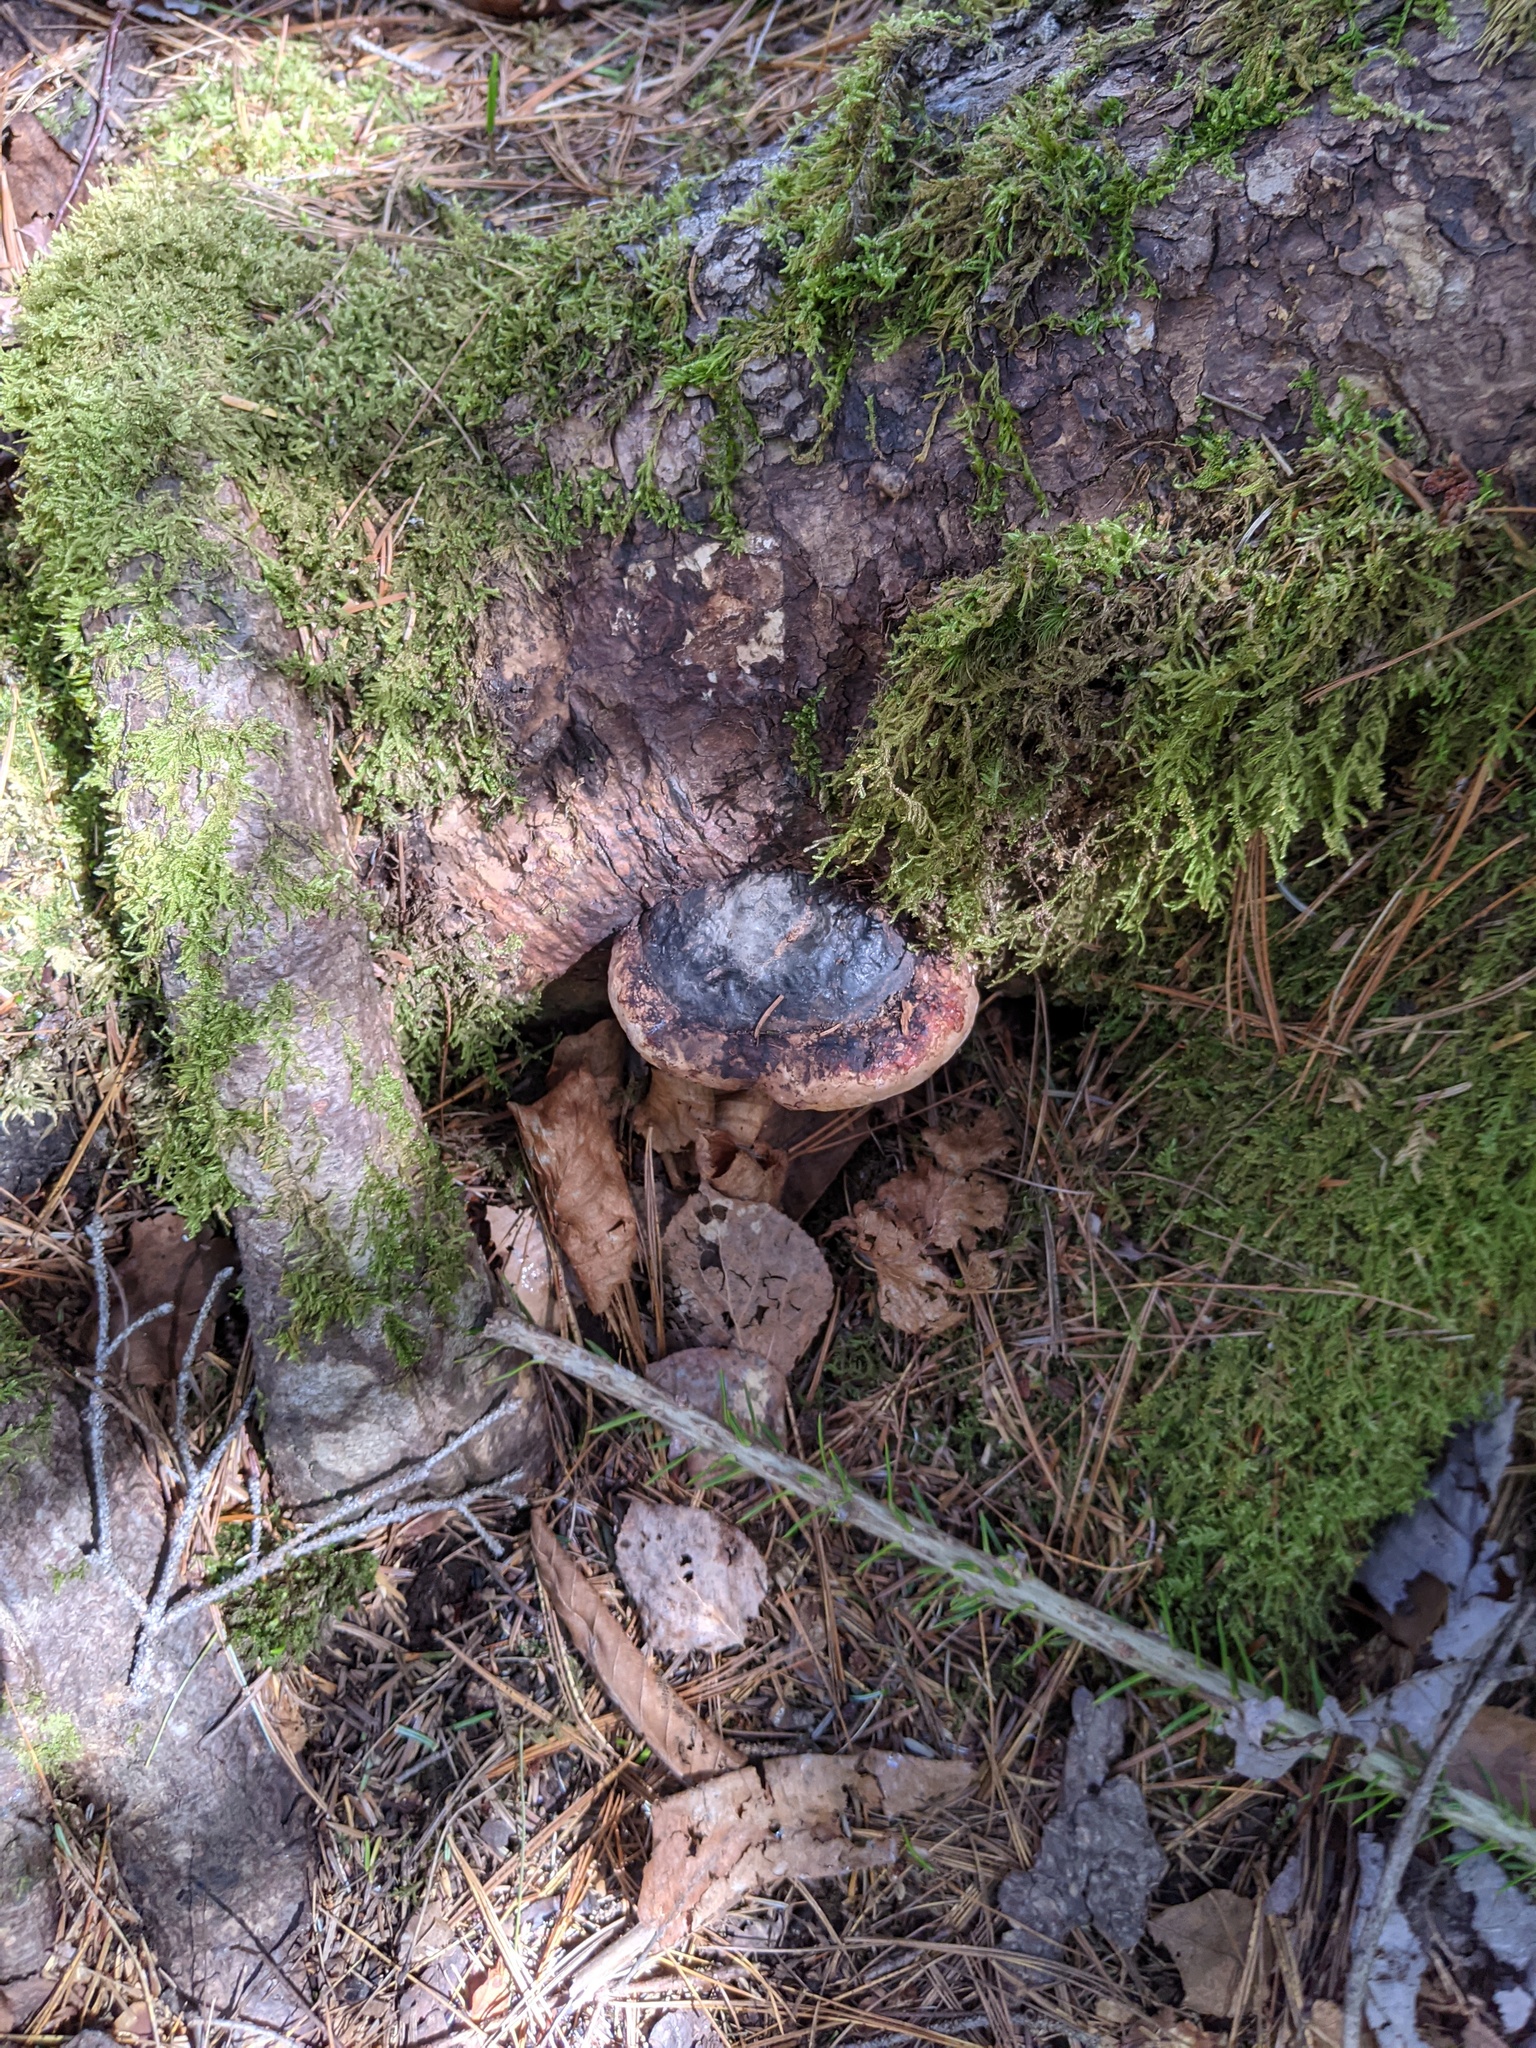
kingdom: Fungi
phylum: Basidiomycota
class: Agaricomycetes
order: Polyporales
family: Fomitopsidaceae
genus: Fomitopsis
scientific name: Fomitopsis mounceae
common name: Northern red belt
